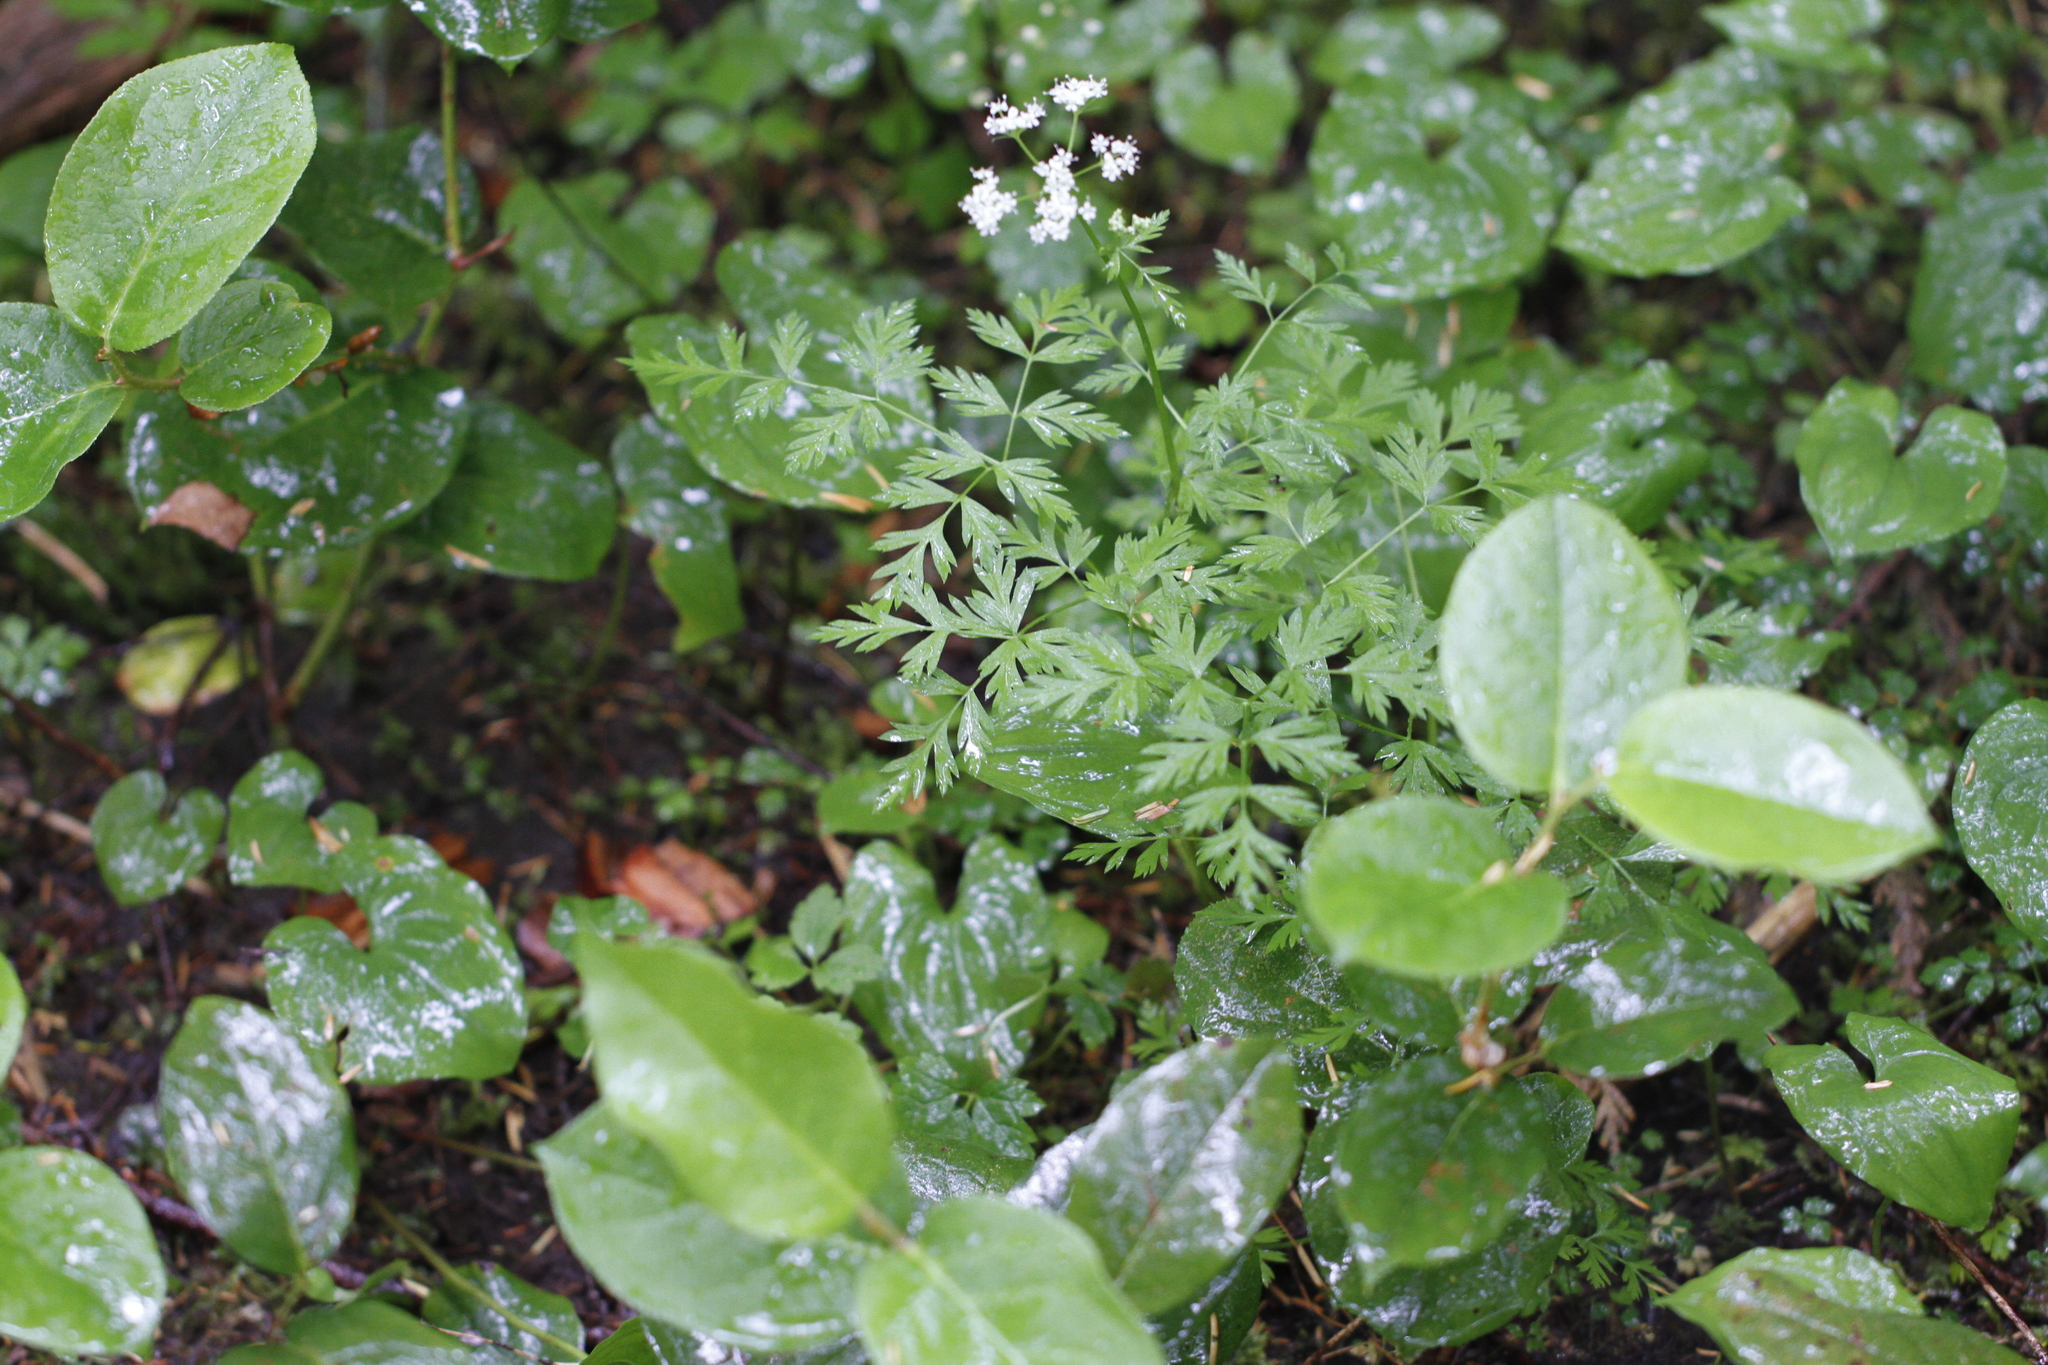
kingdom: Plantae
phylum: Tracheophyta
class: Magnoliopsida
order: Apiales
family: Apiaceae
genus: Ligusticum
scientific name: Ligusticum calderi
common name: Calder's licorice-root
